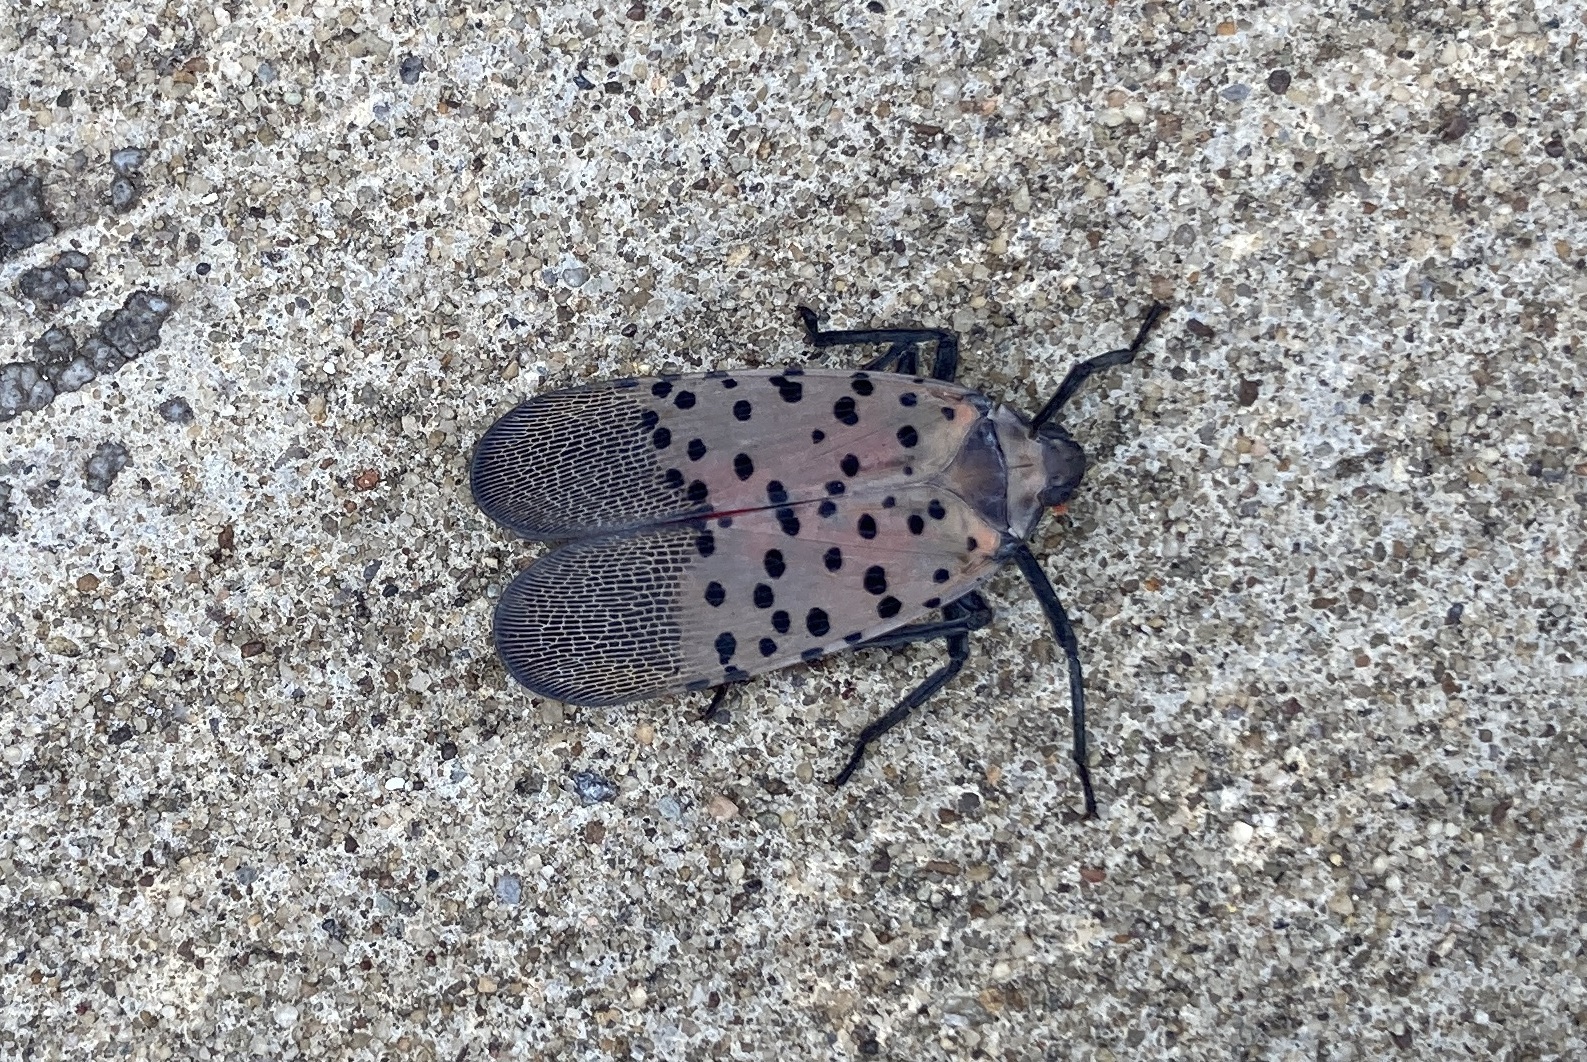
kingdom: Animalia
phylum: Arthropoda
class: Insecta
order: Hemiptera
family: Fulgoridae
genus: Lycorma
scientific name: Lycorma delicatula
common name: Spotted lanternfly
